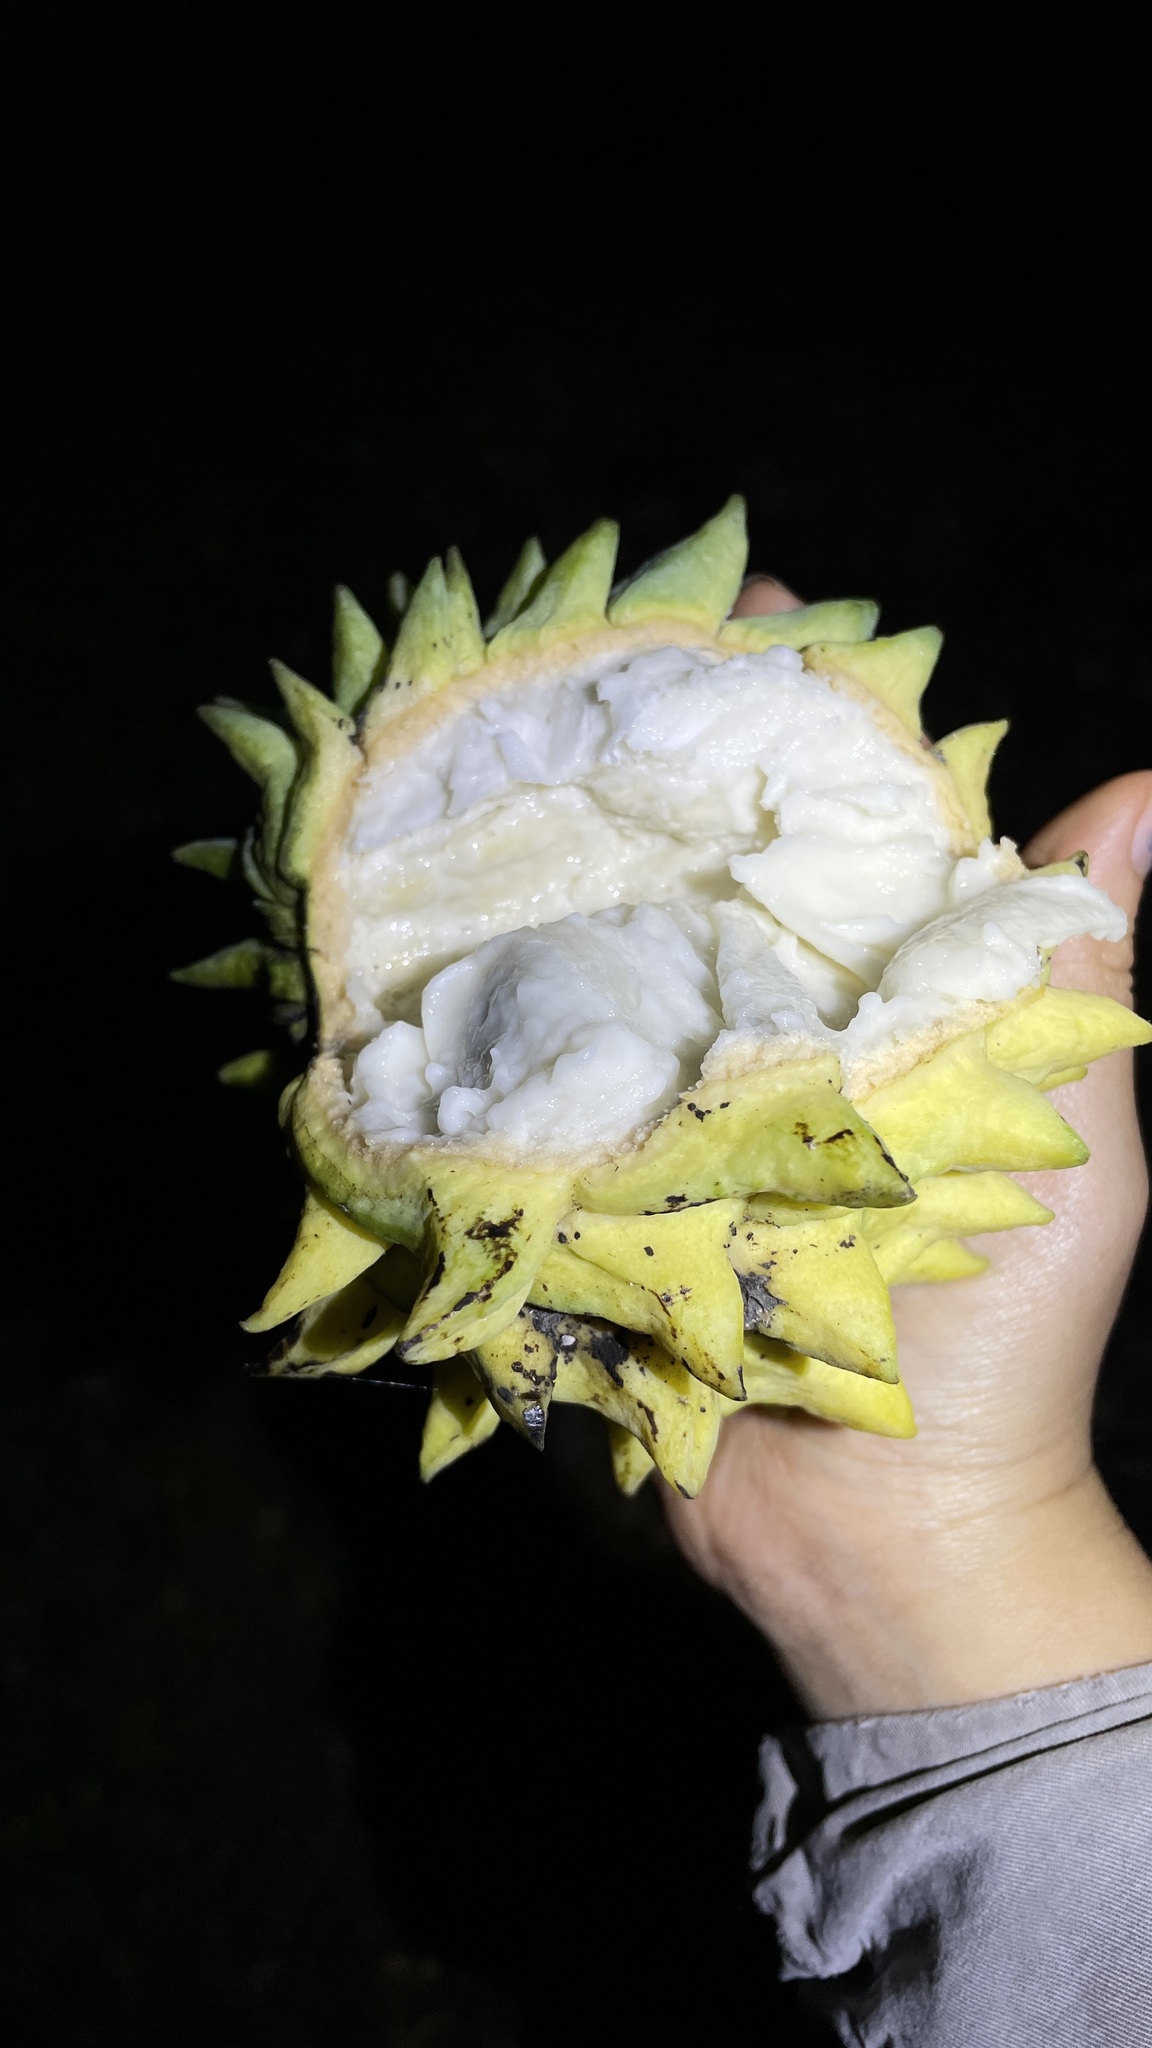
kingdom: Plantae
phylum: Tracheophyta
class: Magnoliopsida
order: Magnoliales
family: Annonaceae
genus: Annona
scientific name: Annona mucosa
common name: Sugar apple
